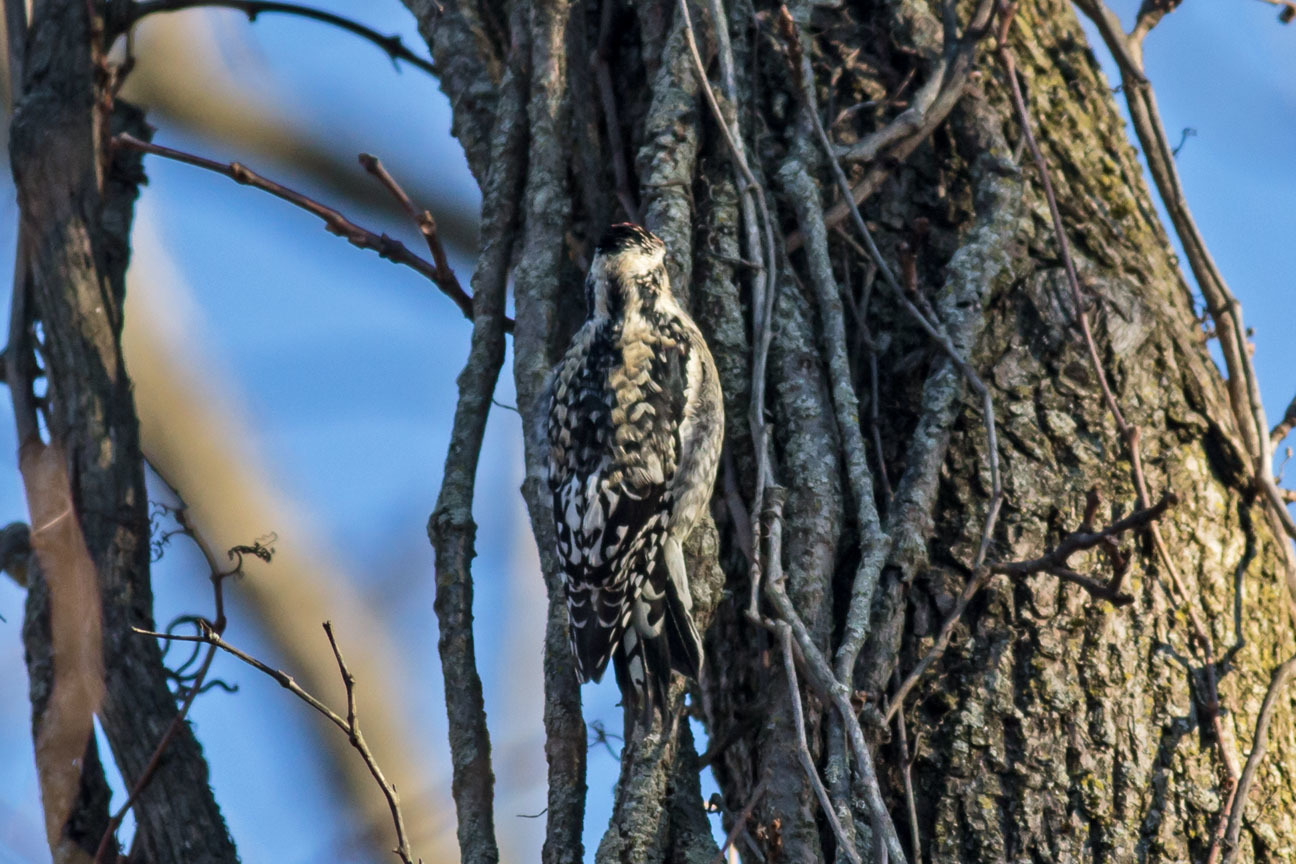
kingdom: Animalia
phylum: Chordata
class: Aves
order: Piciformes
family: Picidae
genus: Sphyrapicus
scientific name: Sphyrapicus varius
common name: Yellow-bellied sapsucker
